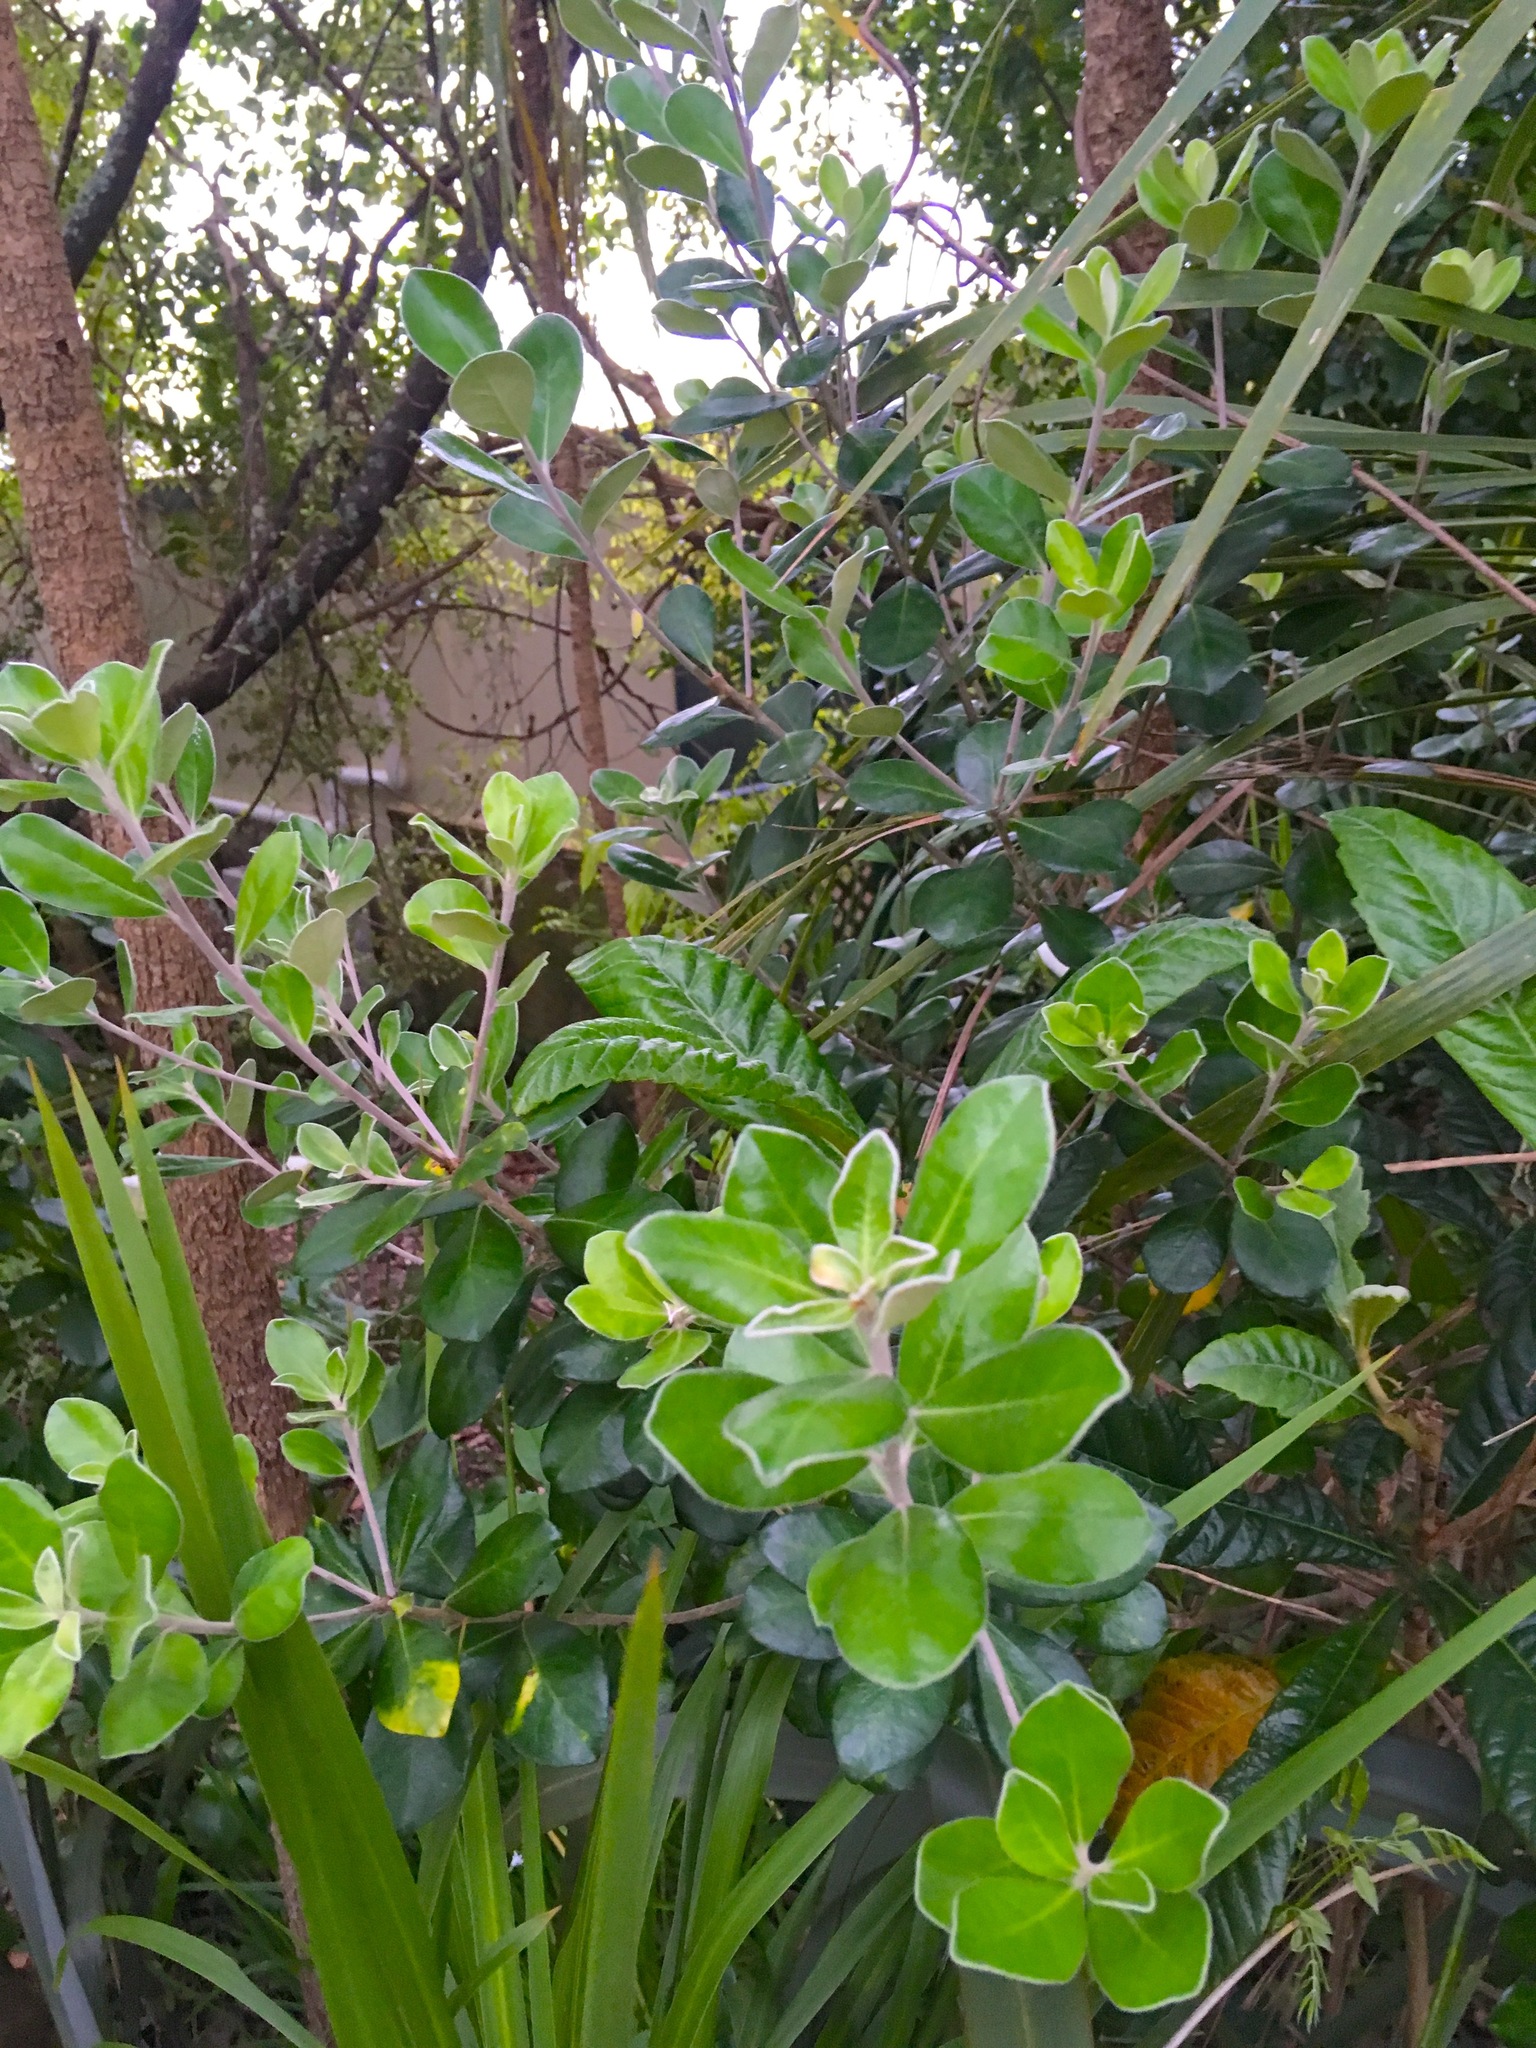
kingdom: Plantae
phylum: Tracheophyta
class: Magnoliopsida
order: Apiales
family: Pittosporaceae
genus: Pittosporum
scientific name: Pittosporum crassifolium
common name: Karo
